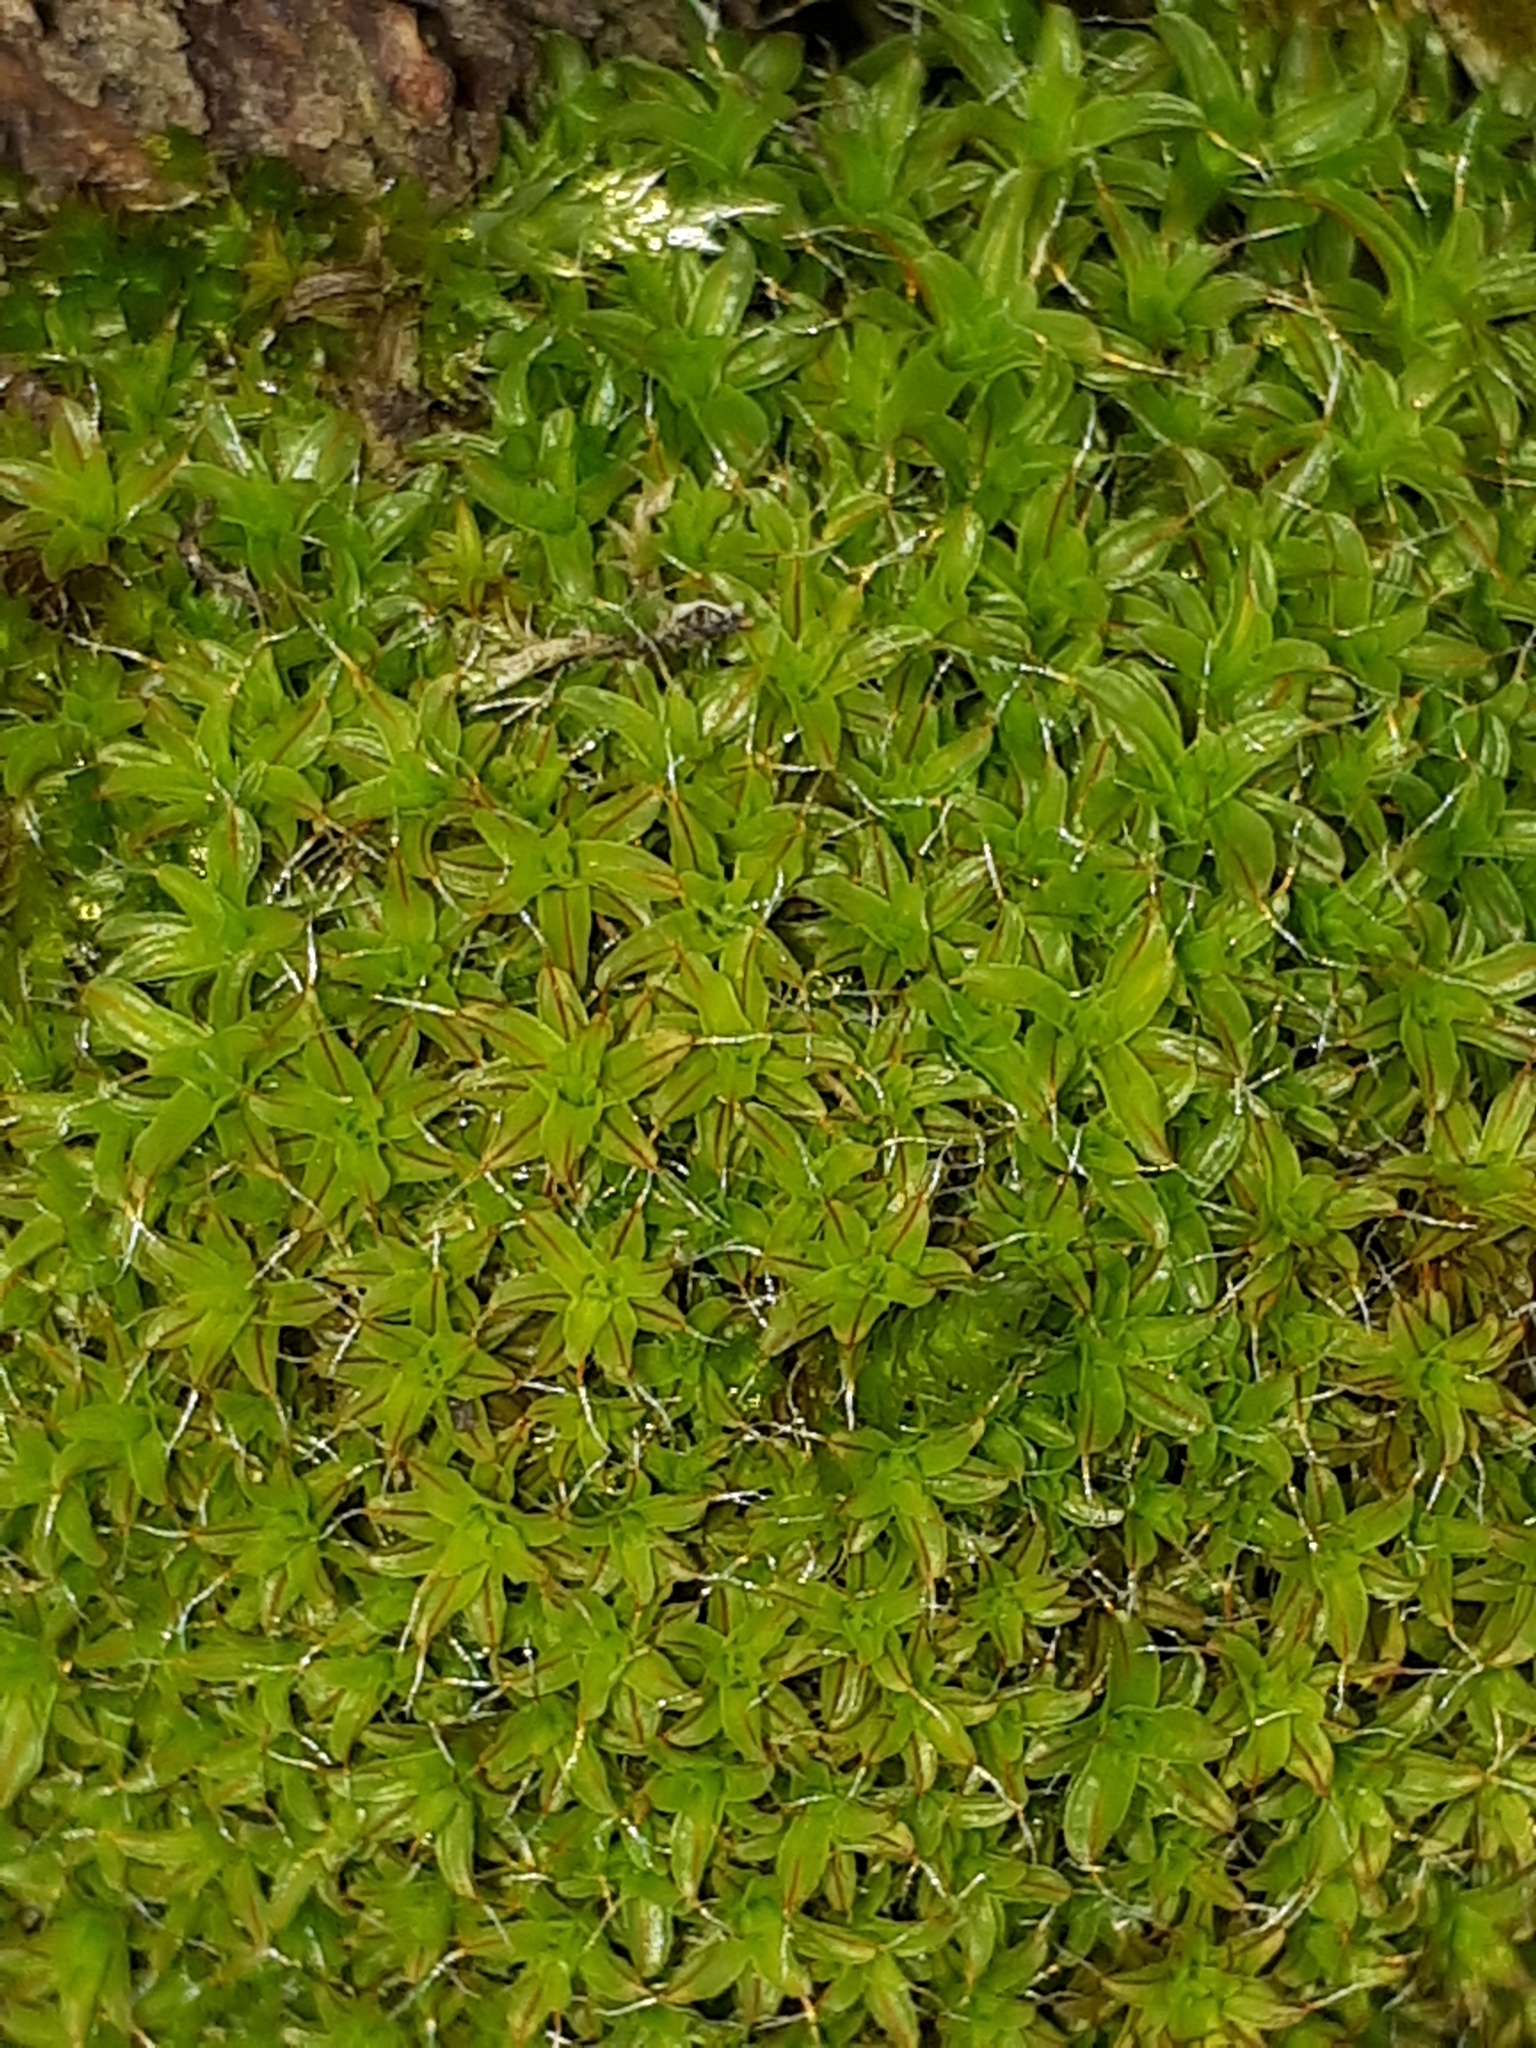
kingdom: Plantae
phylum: Bryophyta
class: Bryopsida
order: Pottiales
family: Pottiaceae
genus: Syntrichia
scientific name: Syntrichia ruralis
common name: Sidewalk screw moss
